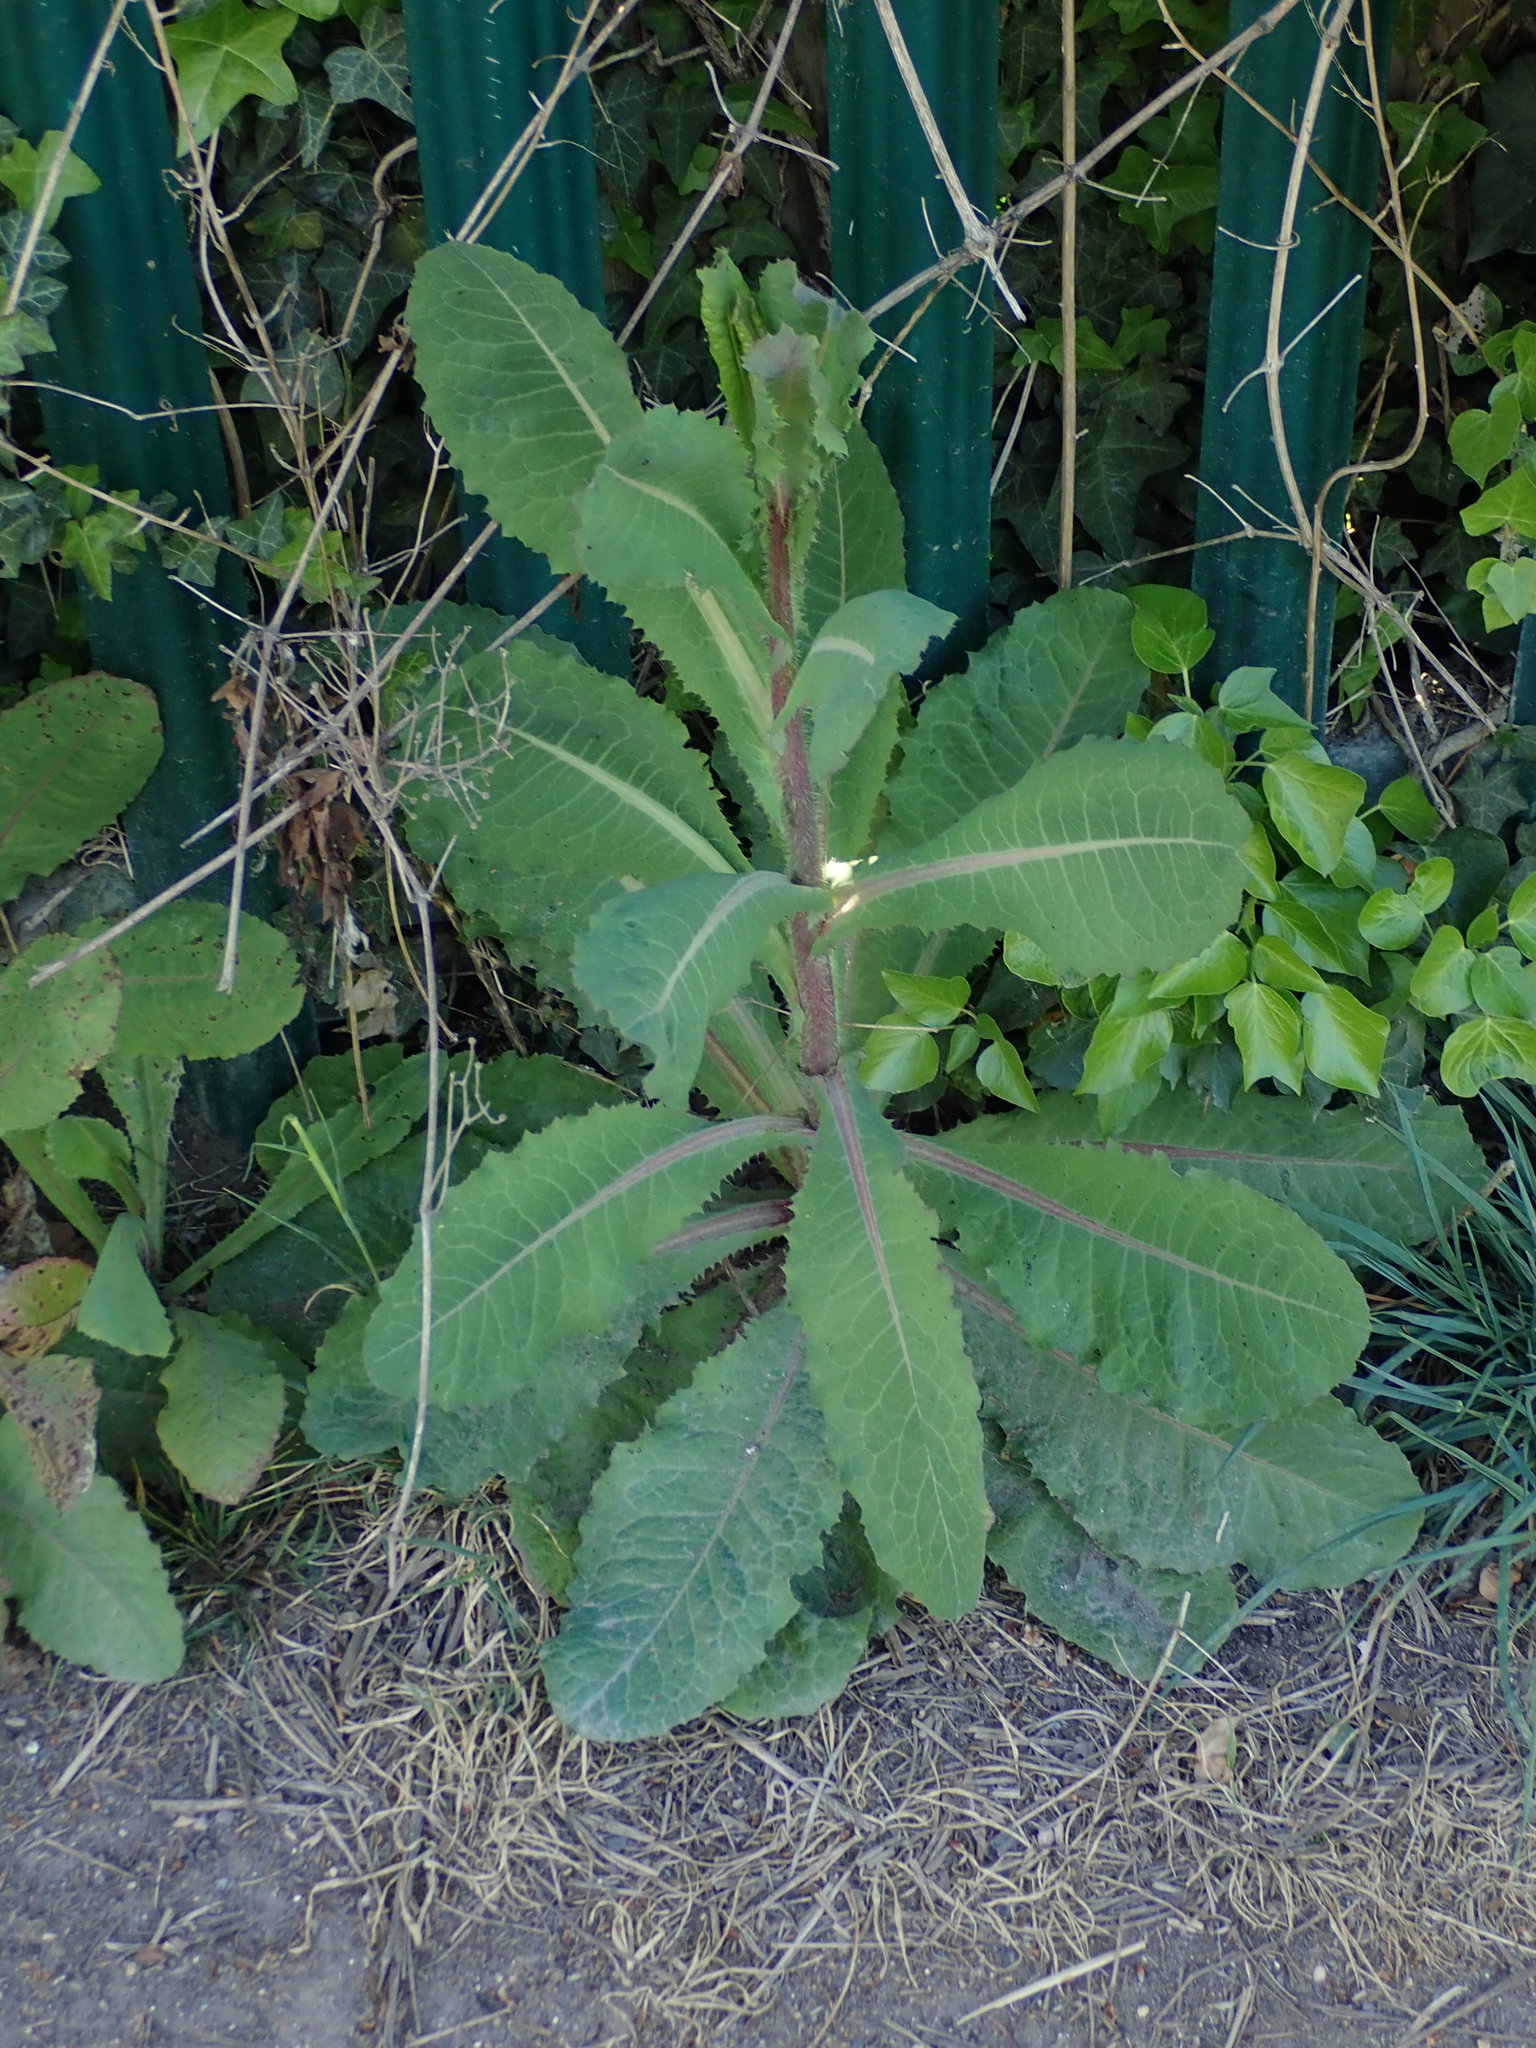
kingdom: Plantae
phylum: Tracheophyta
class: Magnoliopsida
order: Asterales
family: Asteraceae
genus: Lactuca
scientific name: Lactuca virosa
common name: Great lettuce
